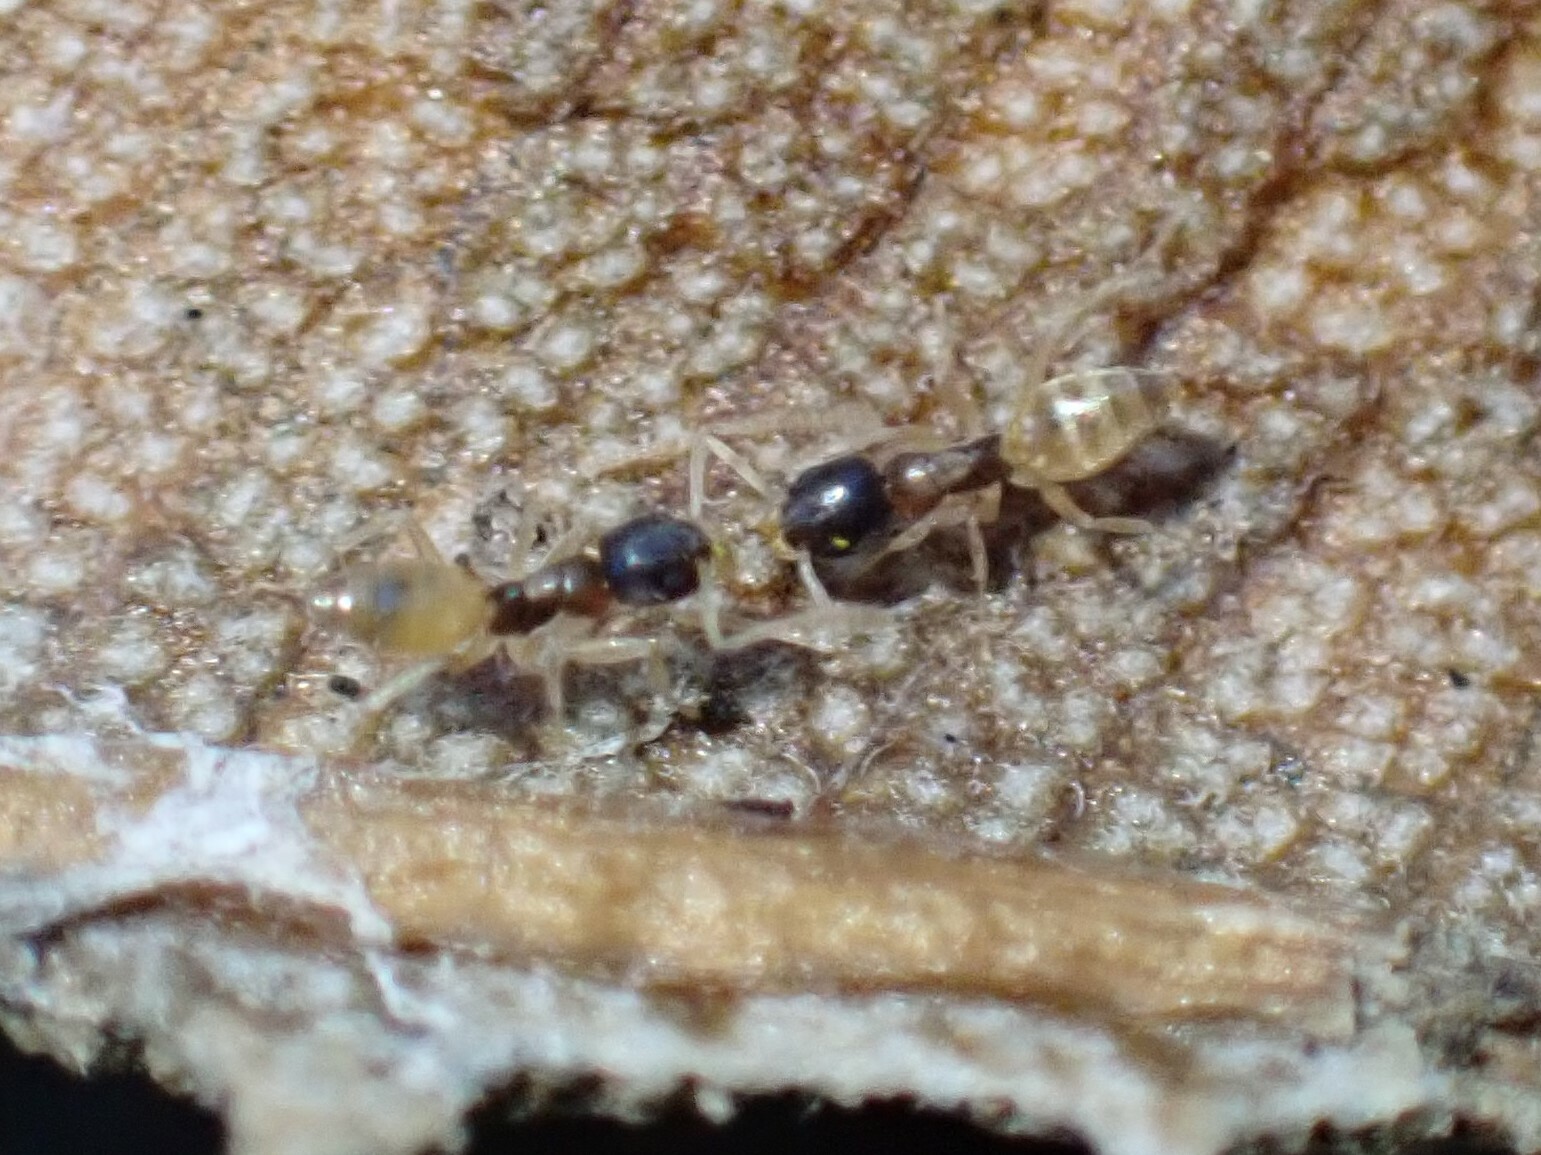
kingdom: Animalia
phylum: Arthropoda
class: Insecta
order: Hymenoptera
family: Formicidae
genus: Tapinoma
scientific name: Tapinoma melanocephalum
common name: Ghost ant
